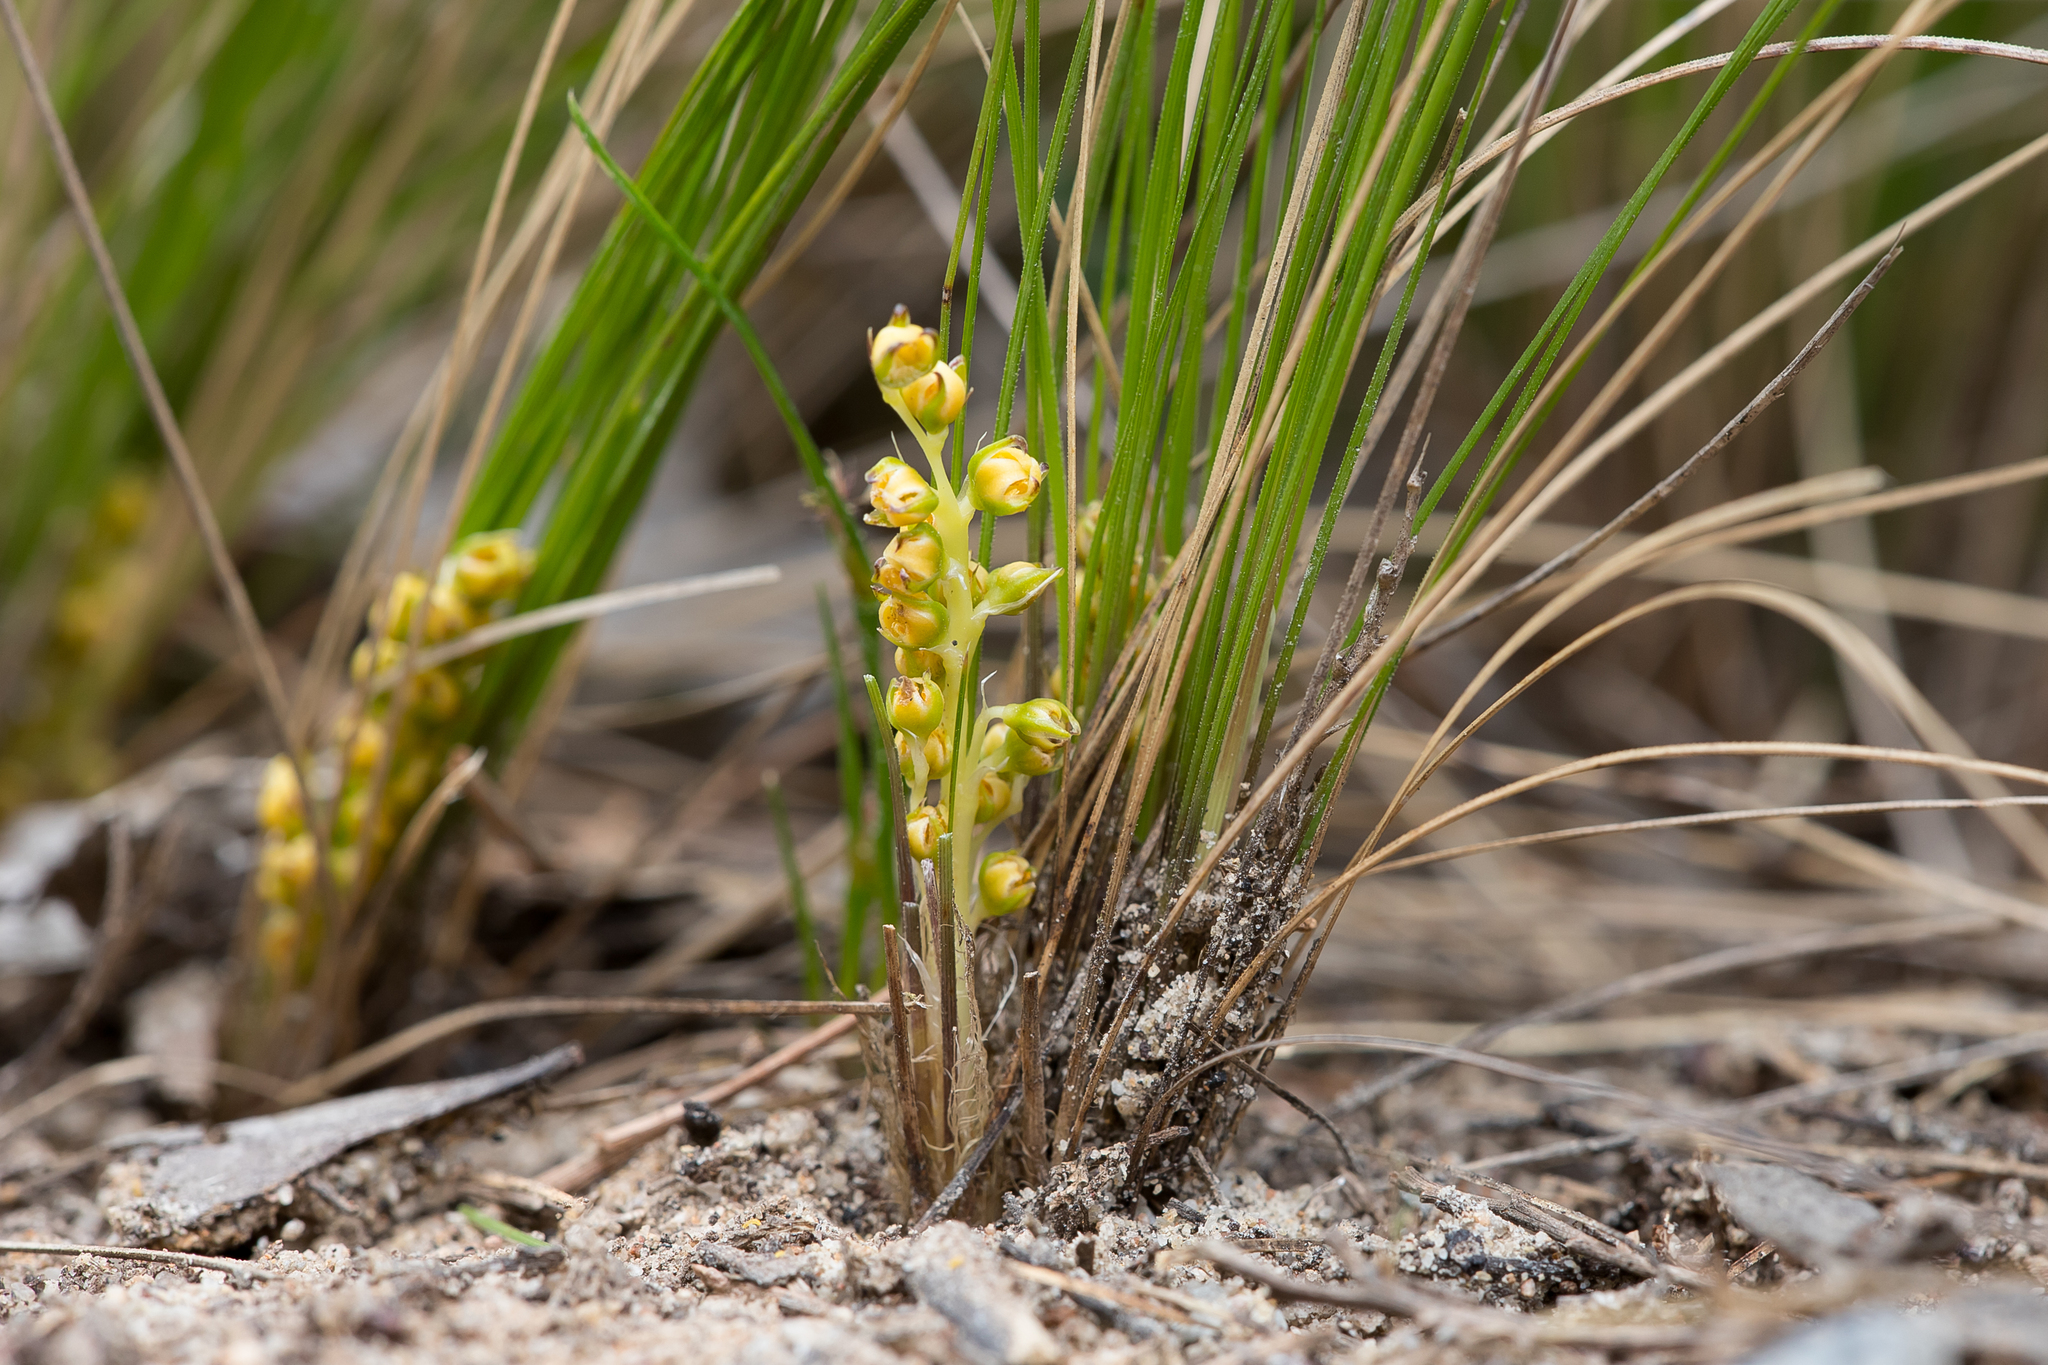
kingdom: Plantae
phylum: Tracheophyta
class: Liliopsida
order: Asparagales
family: Asparagaceae
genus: Lomandra
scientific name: Lomandra fibrata
